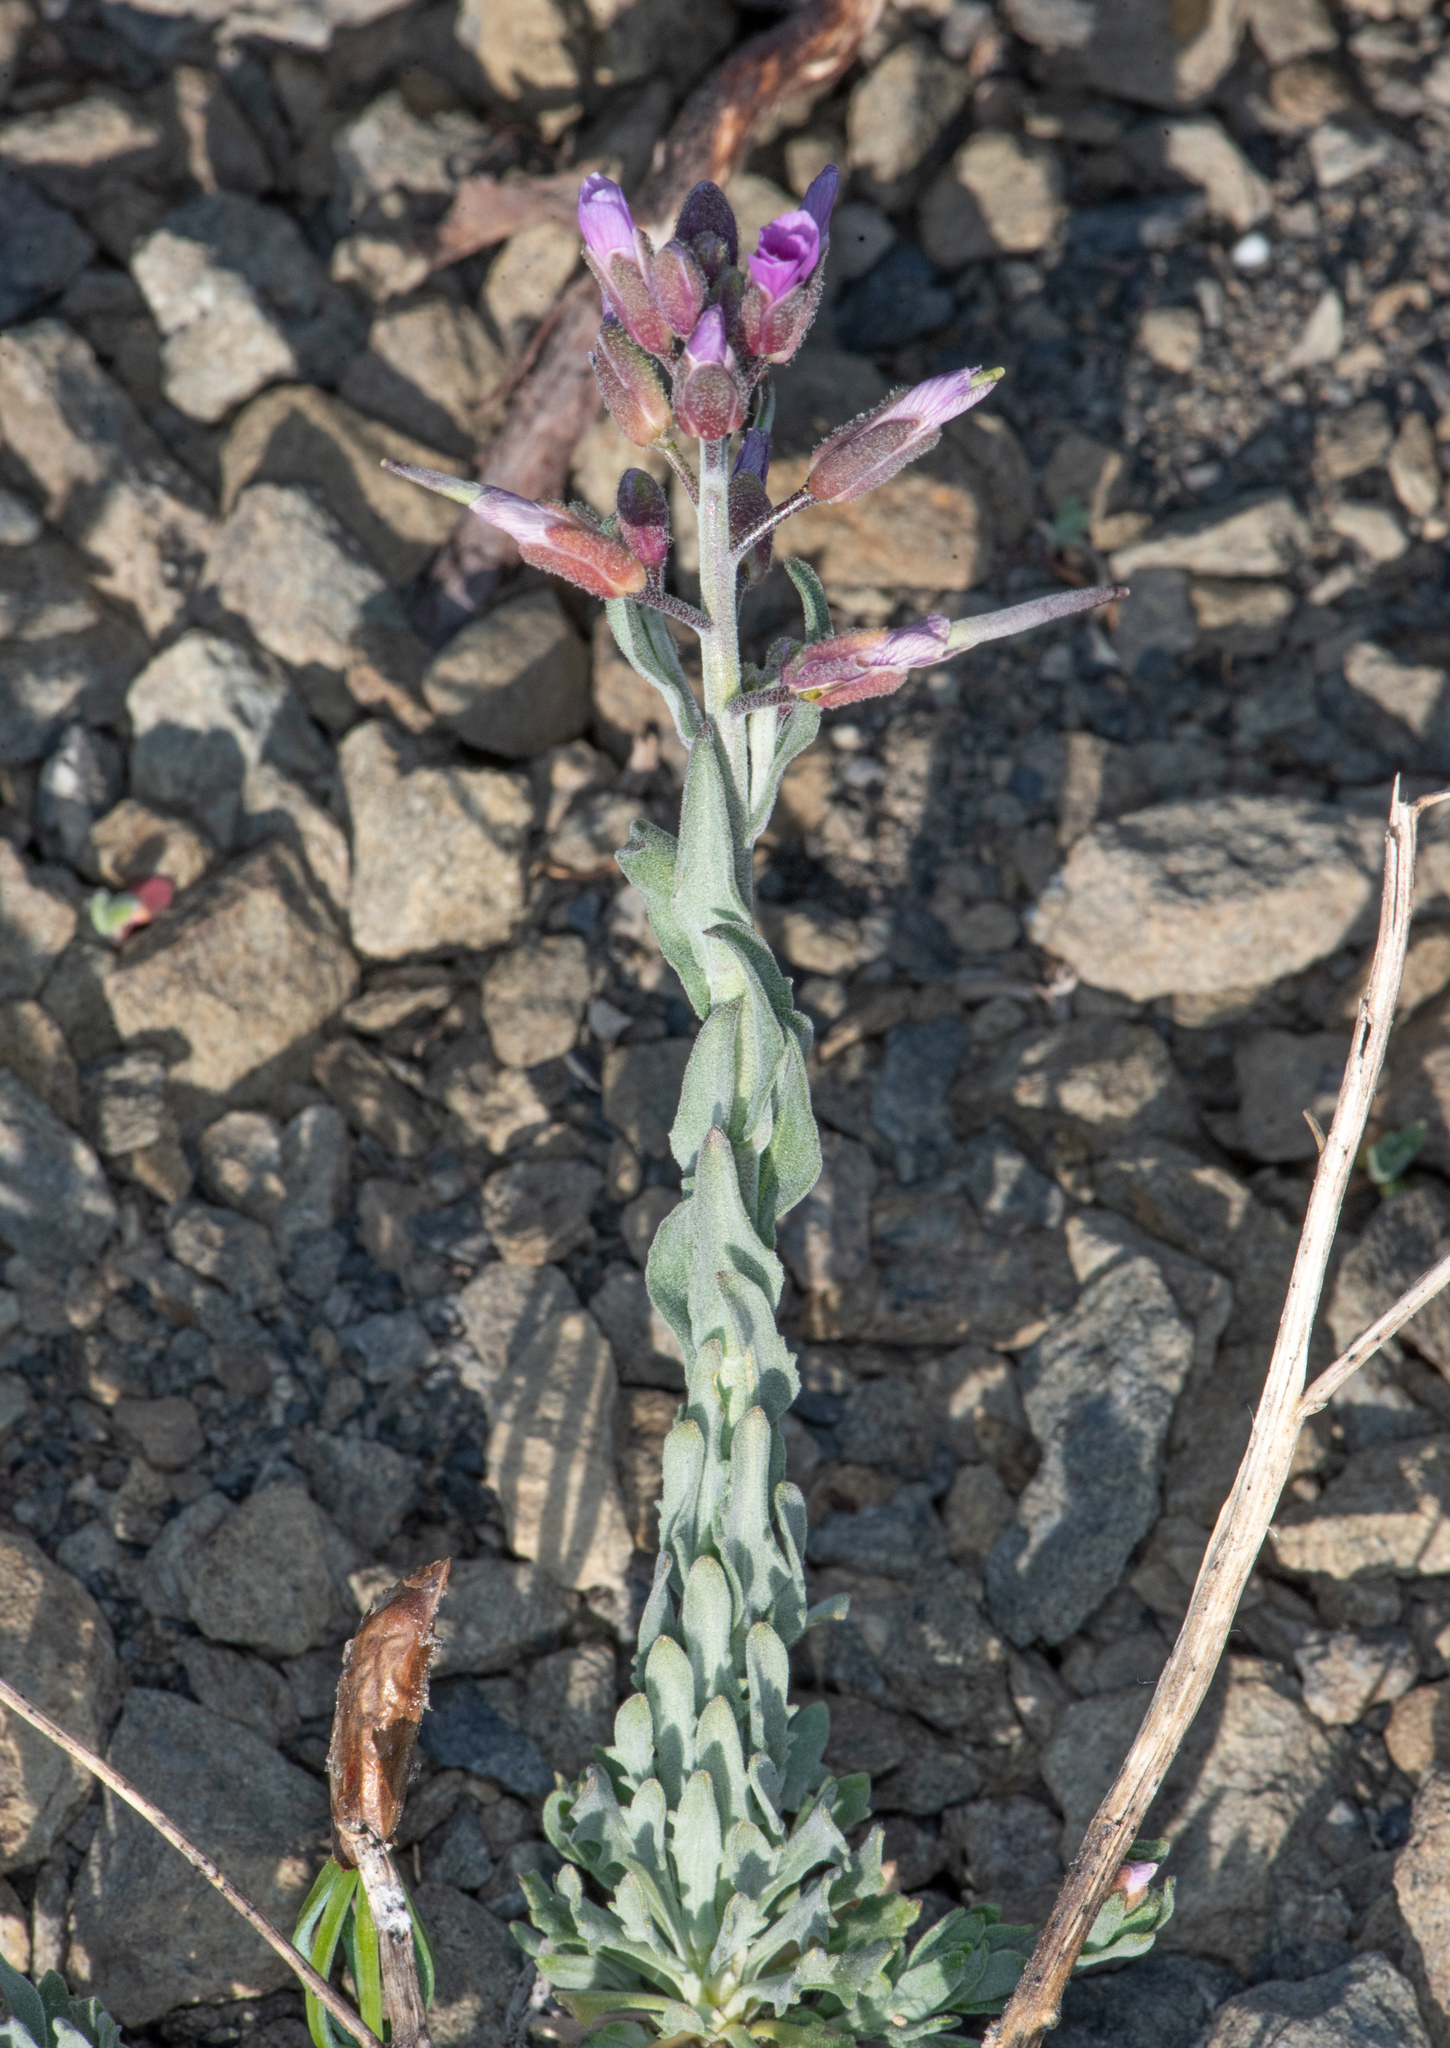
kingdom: Plantae
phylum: Tracheophyta
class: Magnoliopsida
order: Brassicales
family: Brassicaceae
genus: Boechera
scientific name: Boechera subpinnatifida
